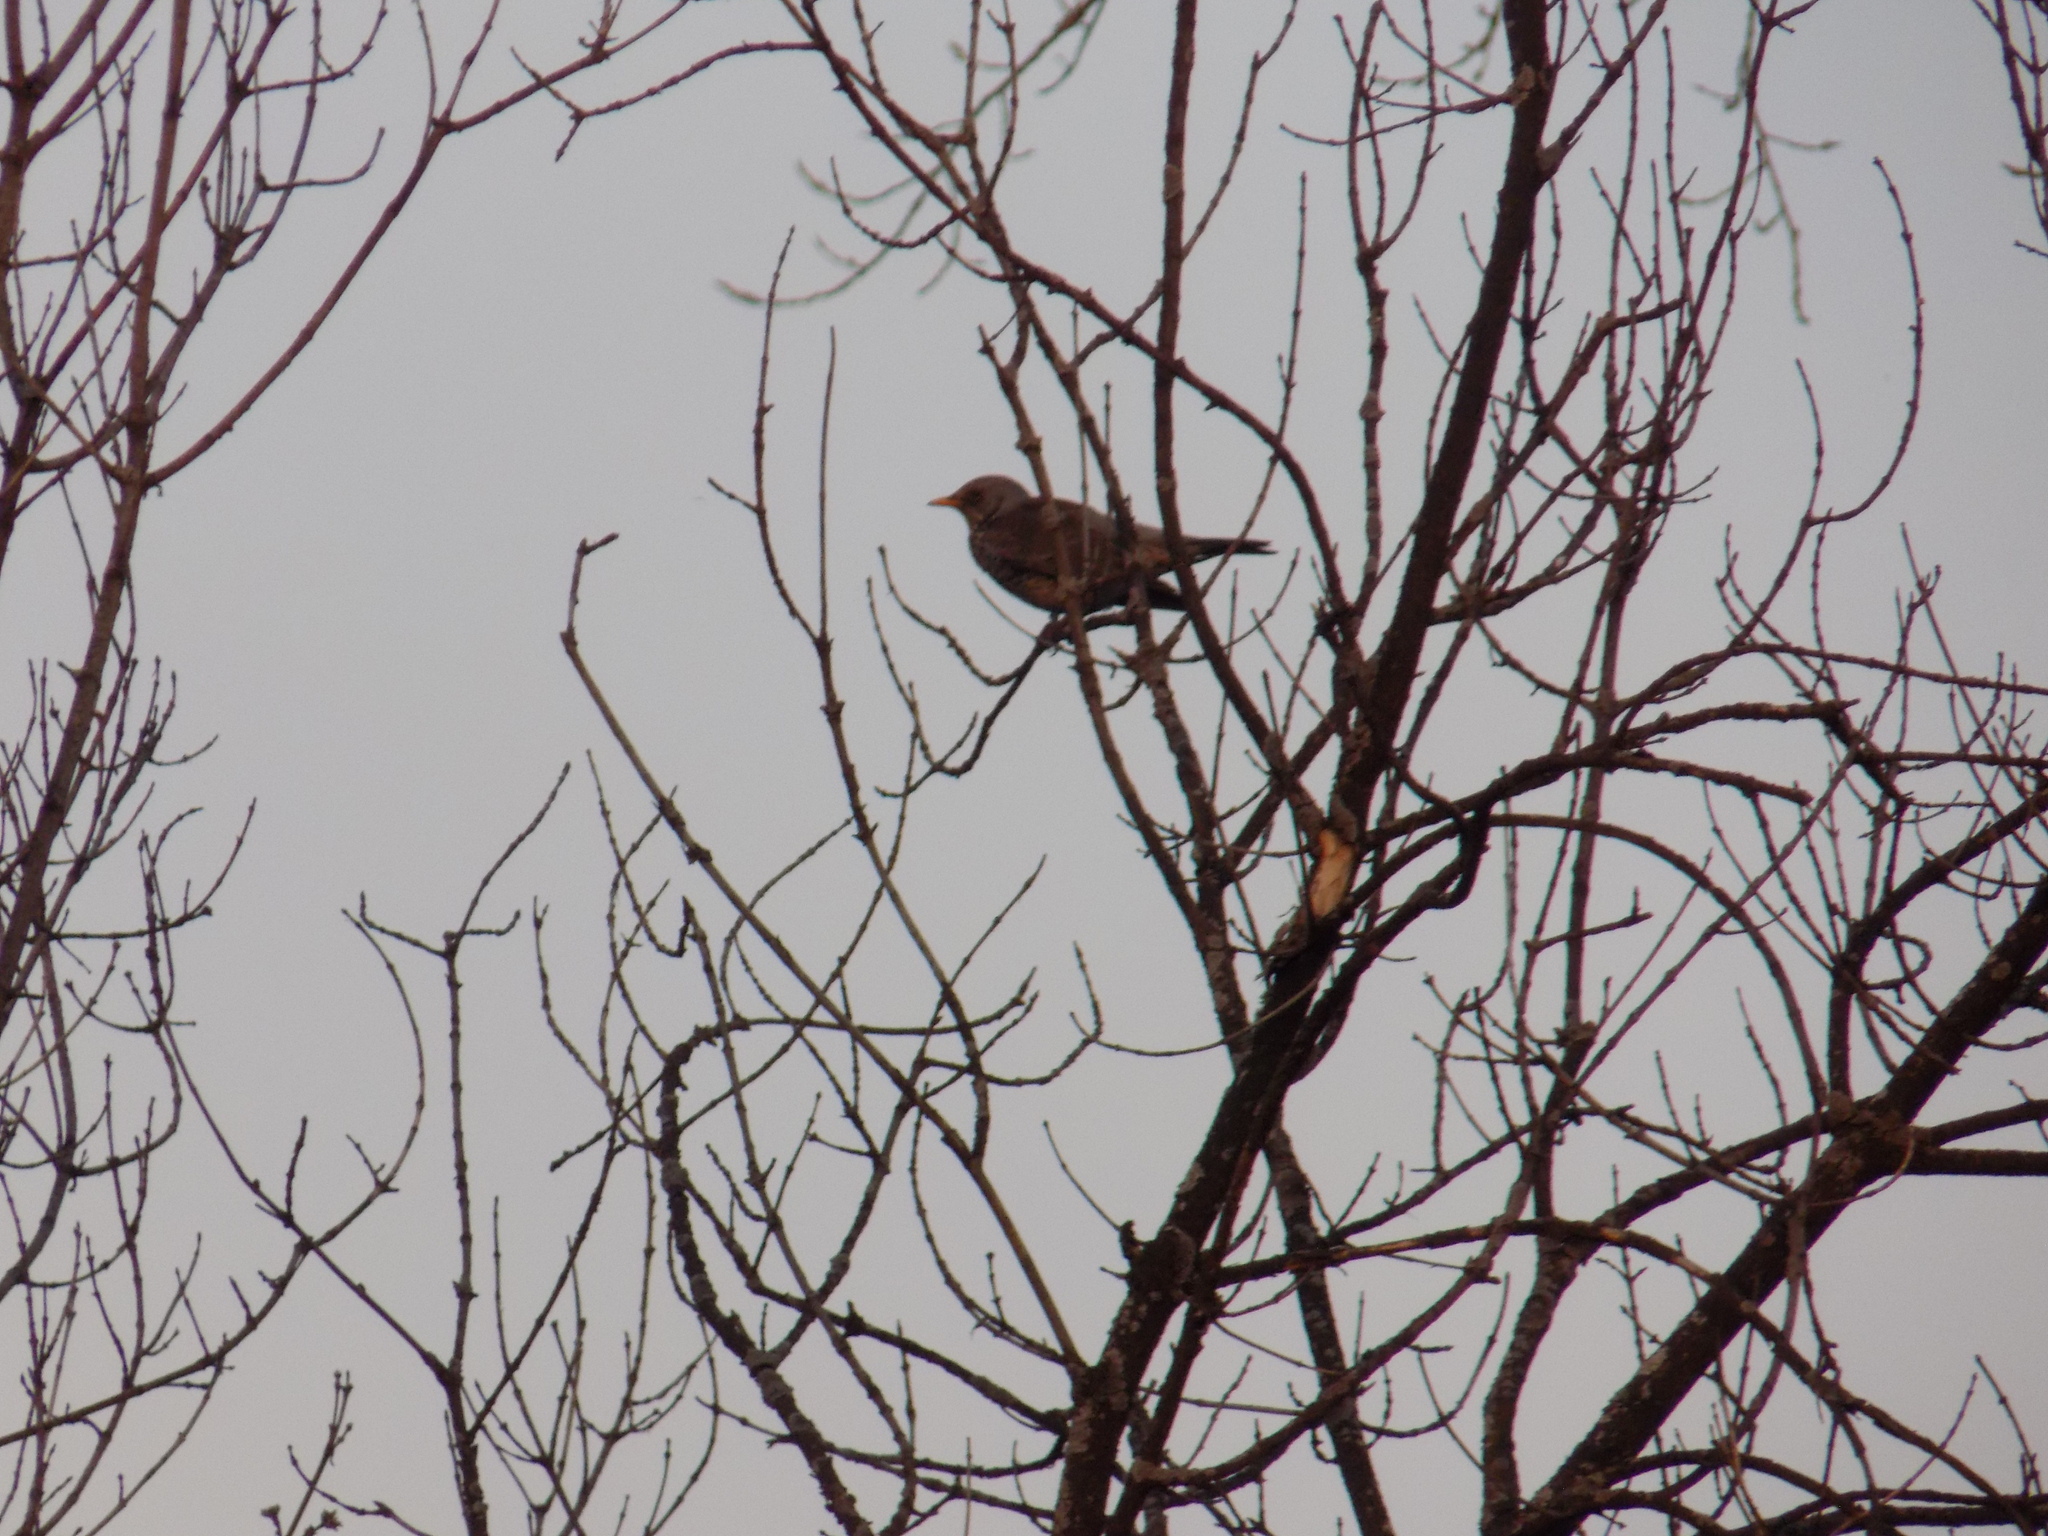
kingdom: Animalia
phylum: Chordata
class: Aves
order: Passeriformes
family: Turdidae
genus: Turdus
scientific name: Turdus pilaris
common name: Fieldfare
